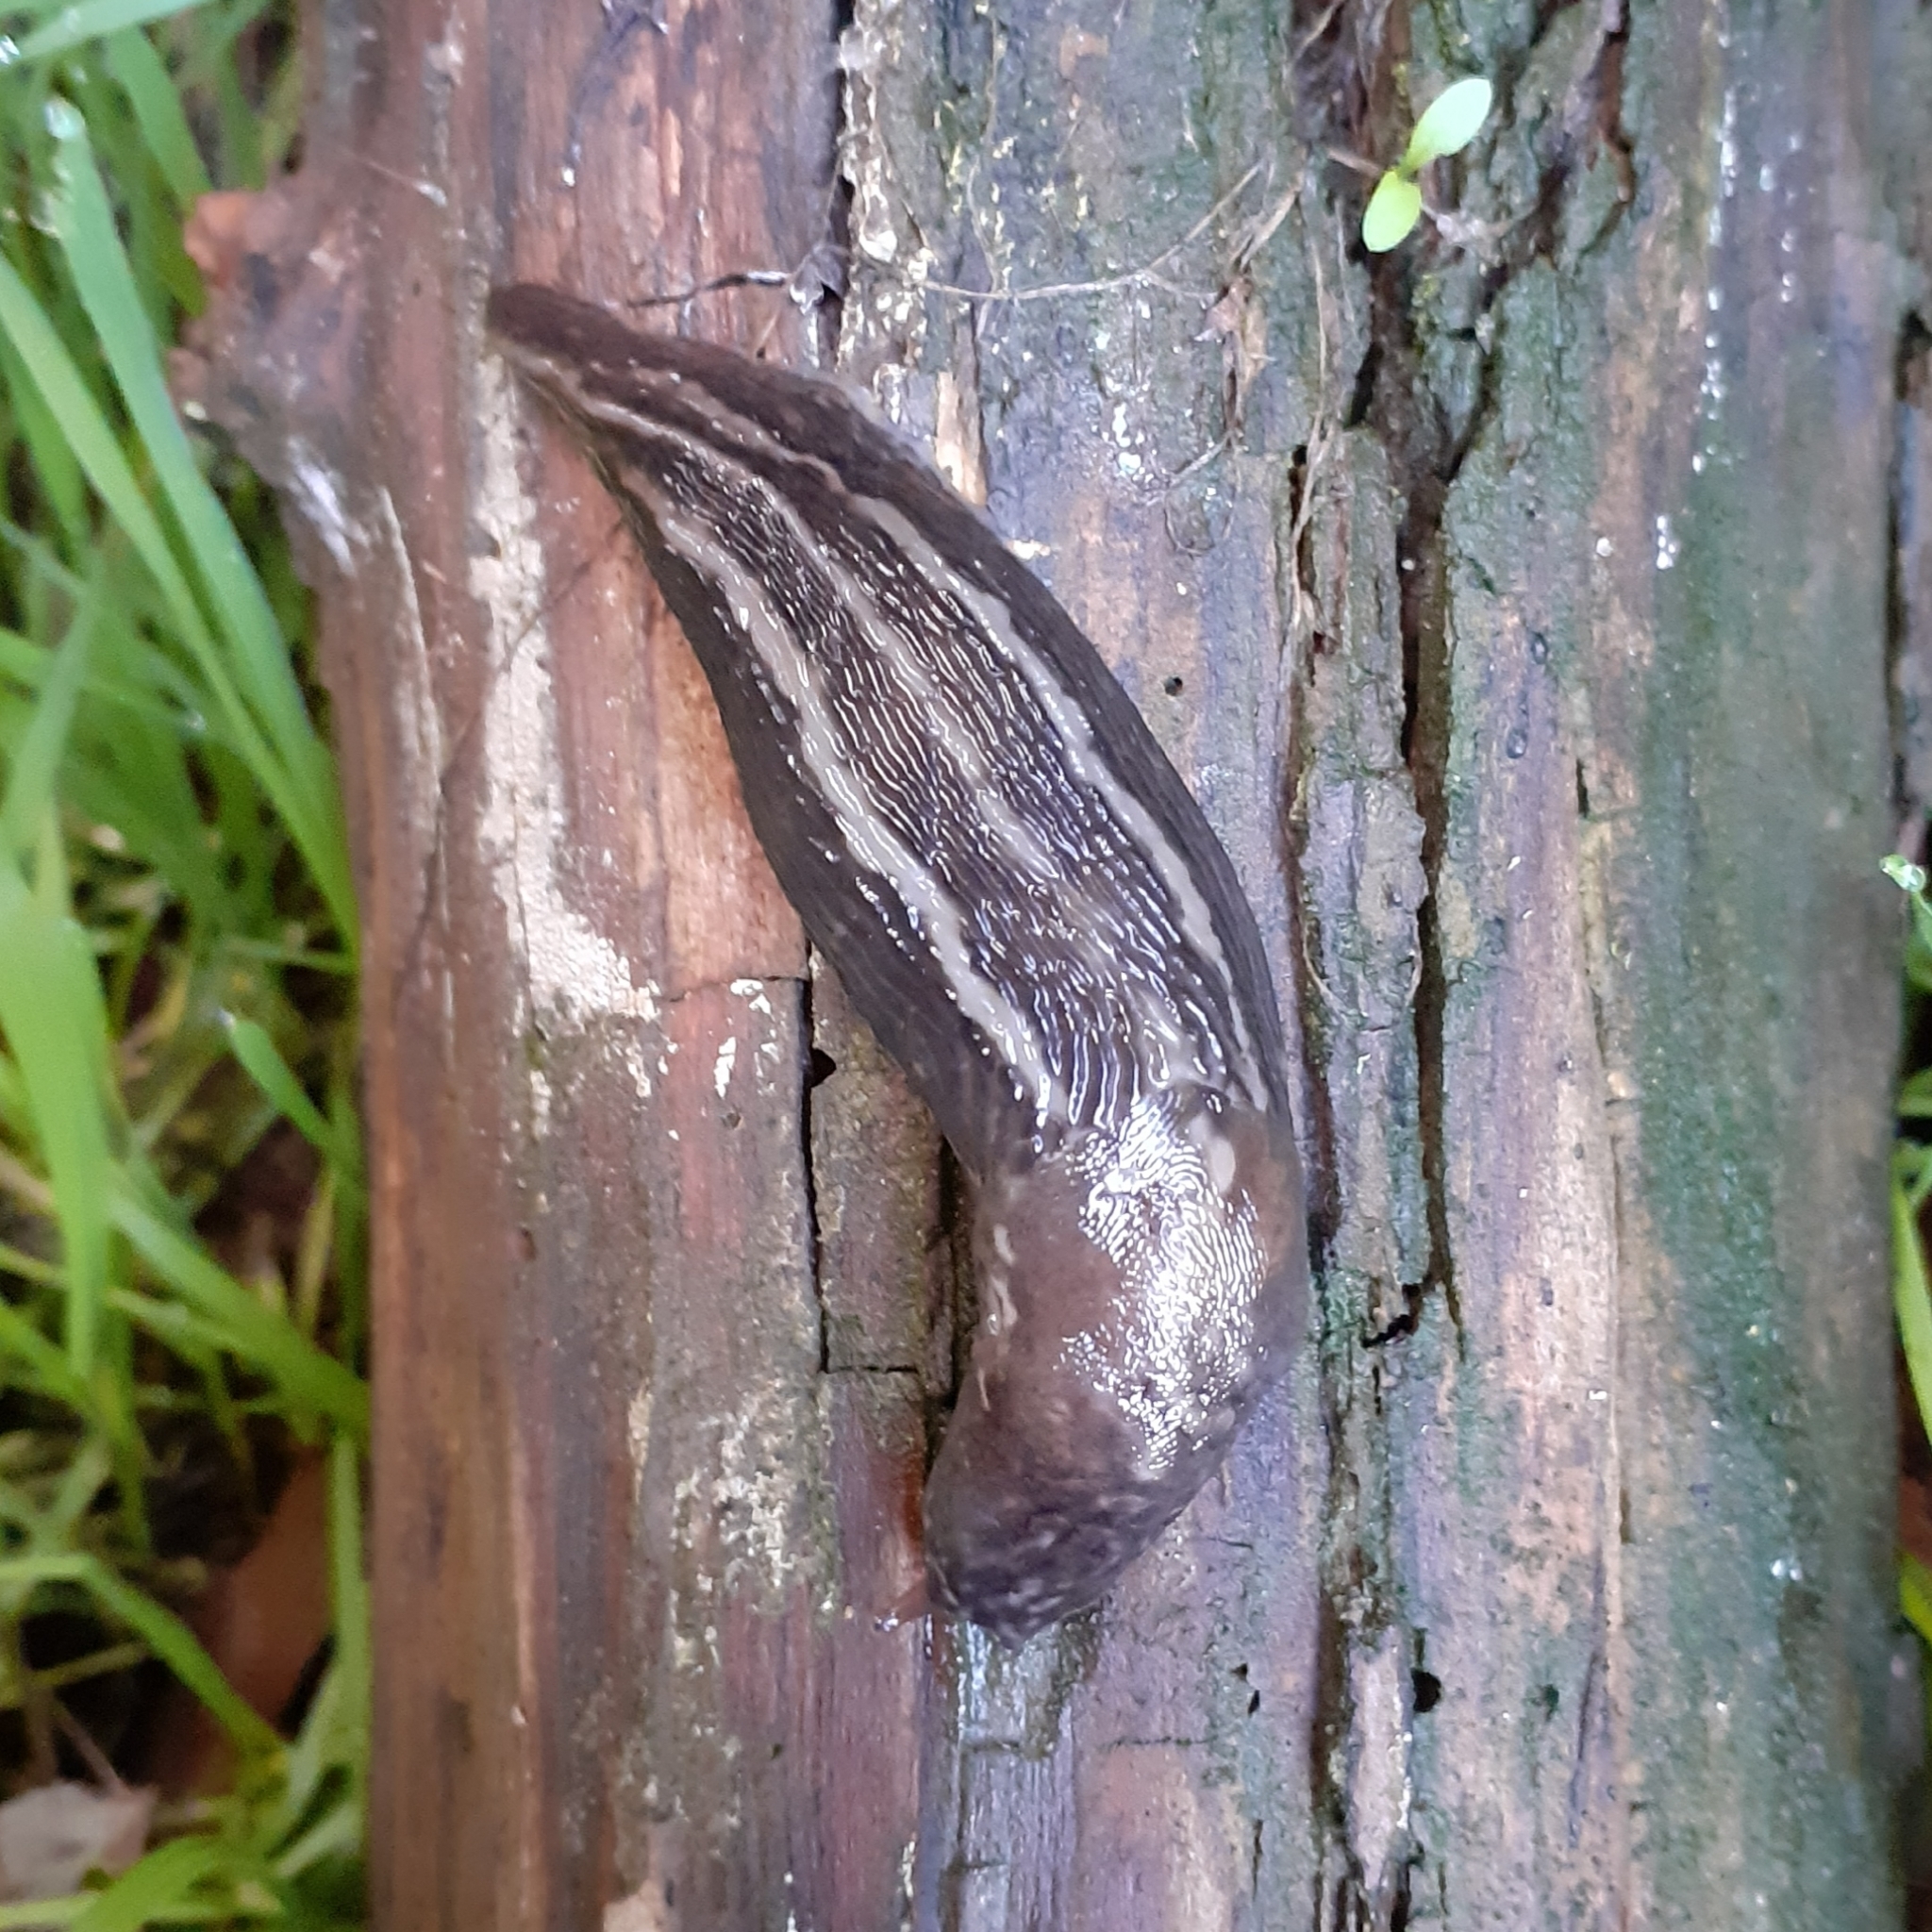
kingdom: Animalia
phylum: Mollusca
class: Gastropoda
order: Stylommatophora
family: Limacidae
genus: Limax
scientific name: Limax maximus
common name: Great grey slug
